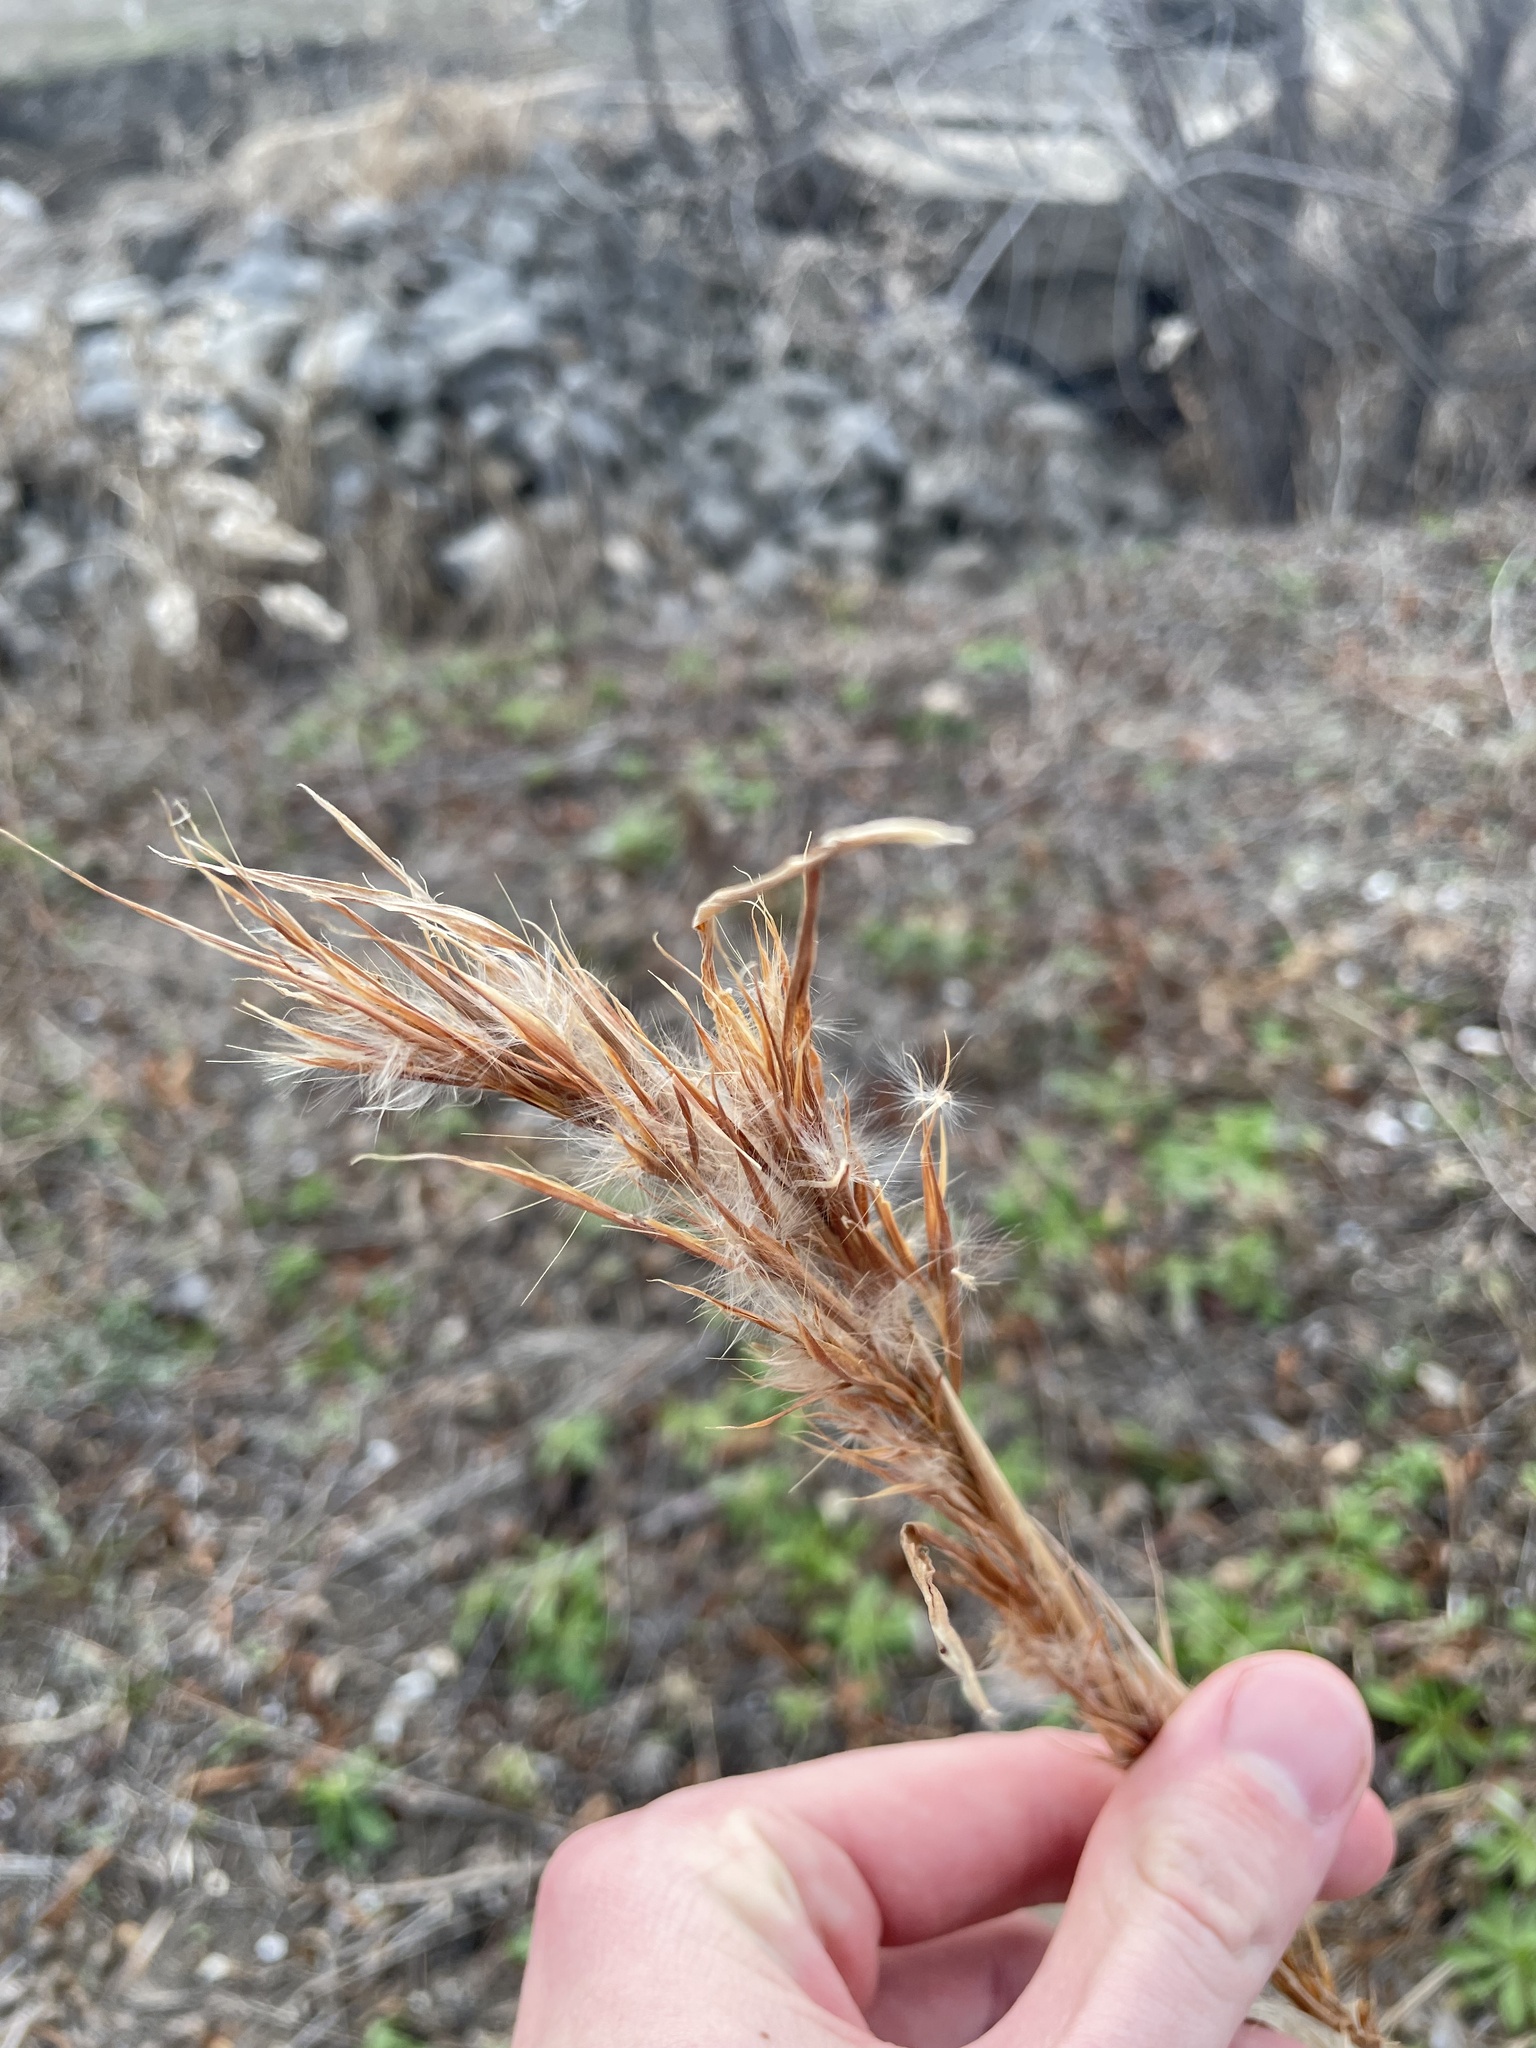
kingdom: Plantae
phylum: Tracheophyta
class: Liliopsida
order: Poales
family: Poaceae
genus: Andropogon
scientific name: Andropogon tenuispatheus
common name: Bushy bluestem
